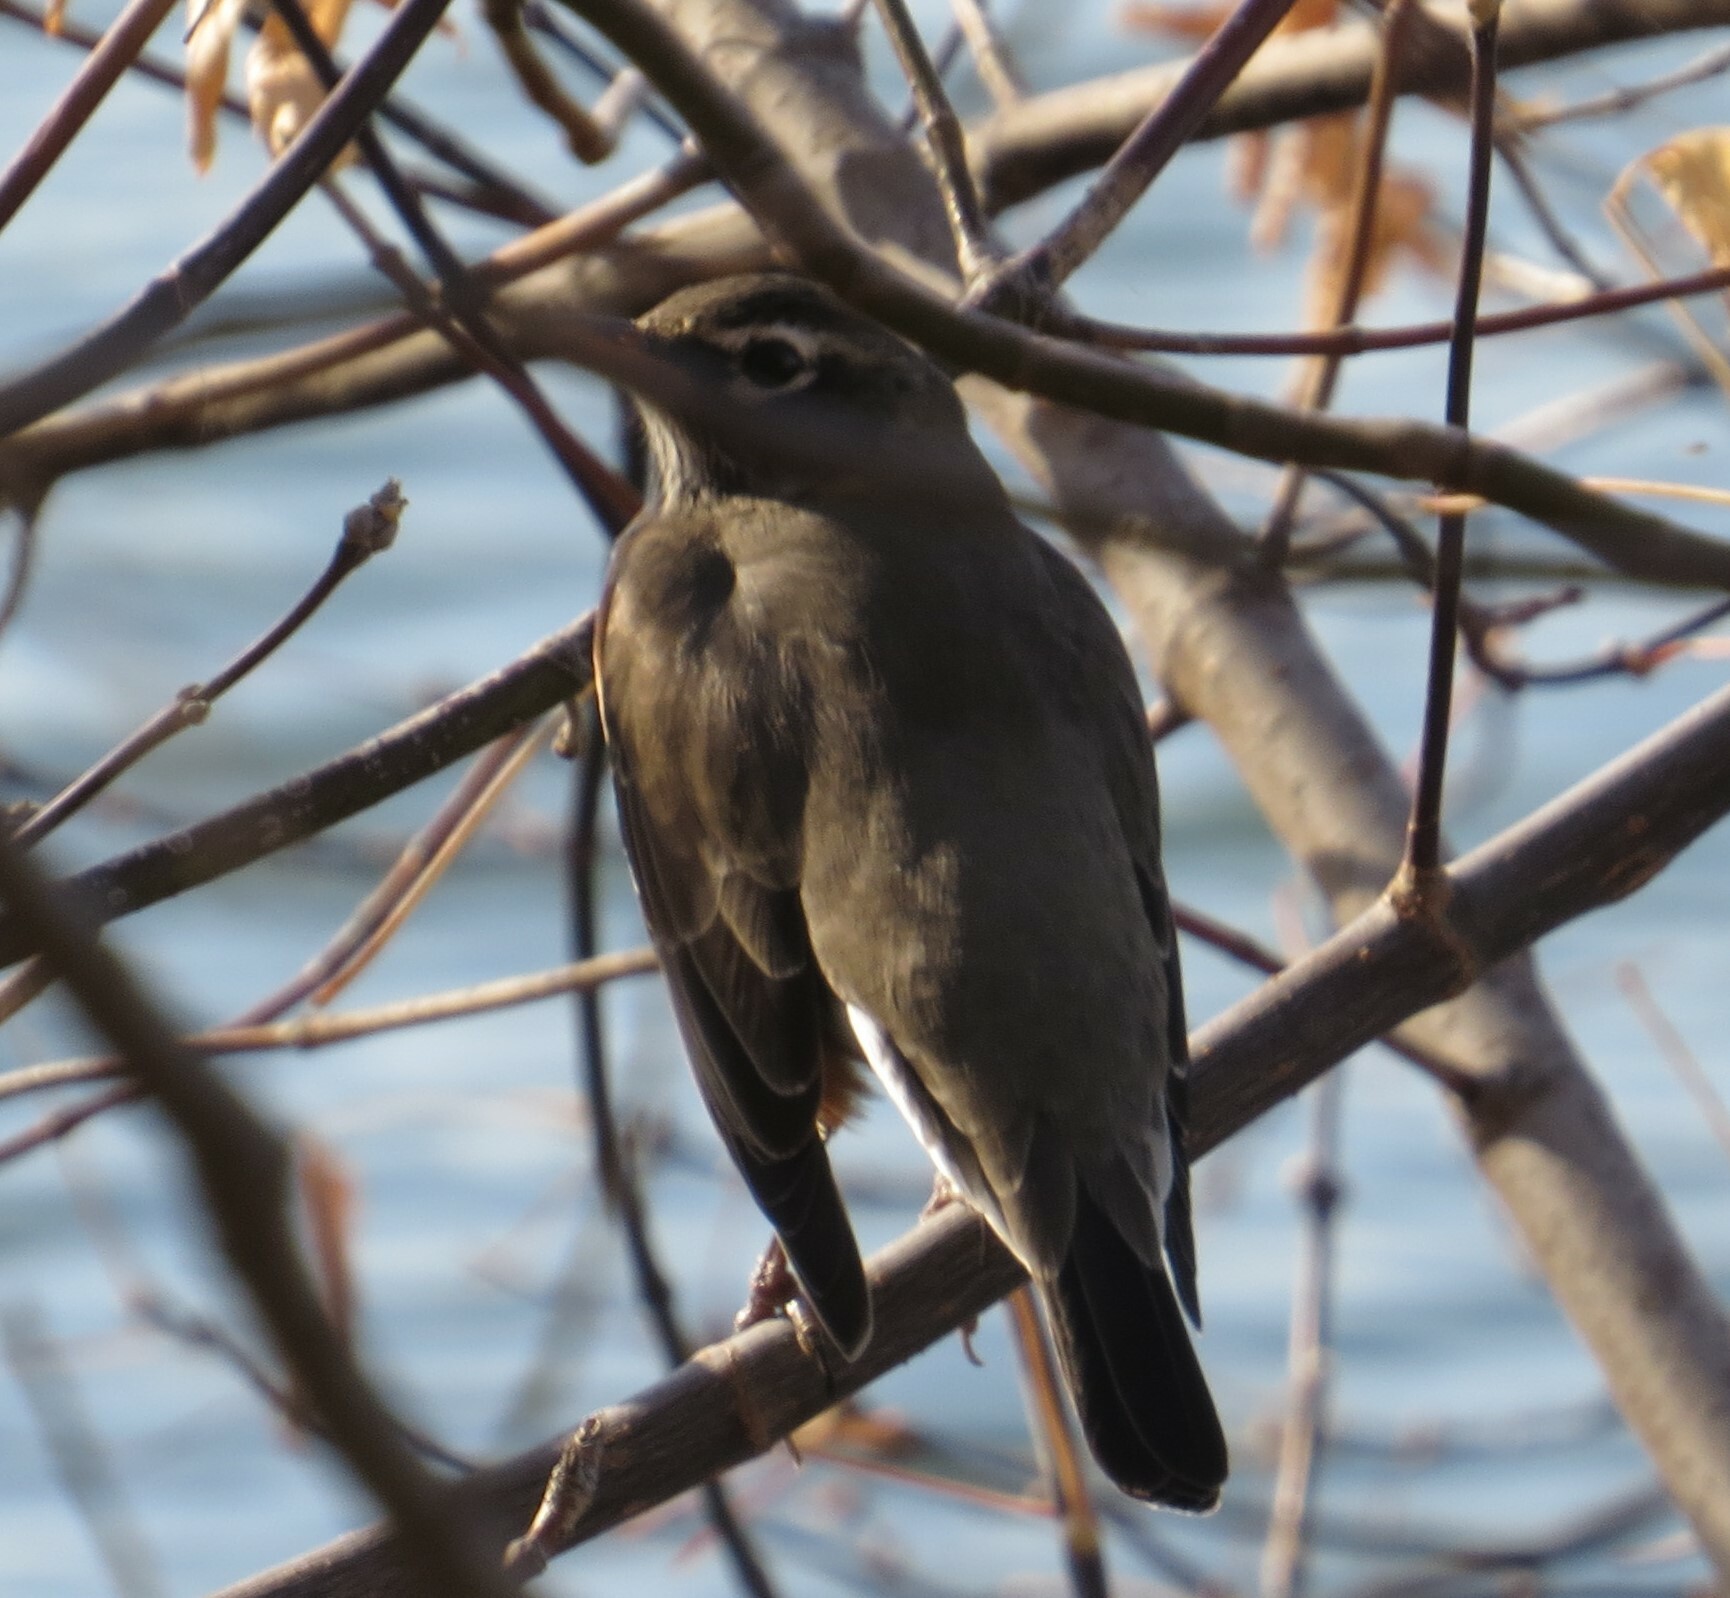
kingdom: Animalia
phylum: Chordata
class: Aves
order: Passeriformes
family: Turdidae
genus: Turdus
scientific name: Turdus migratorius
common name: American robin
